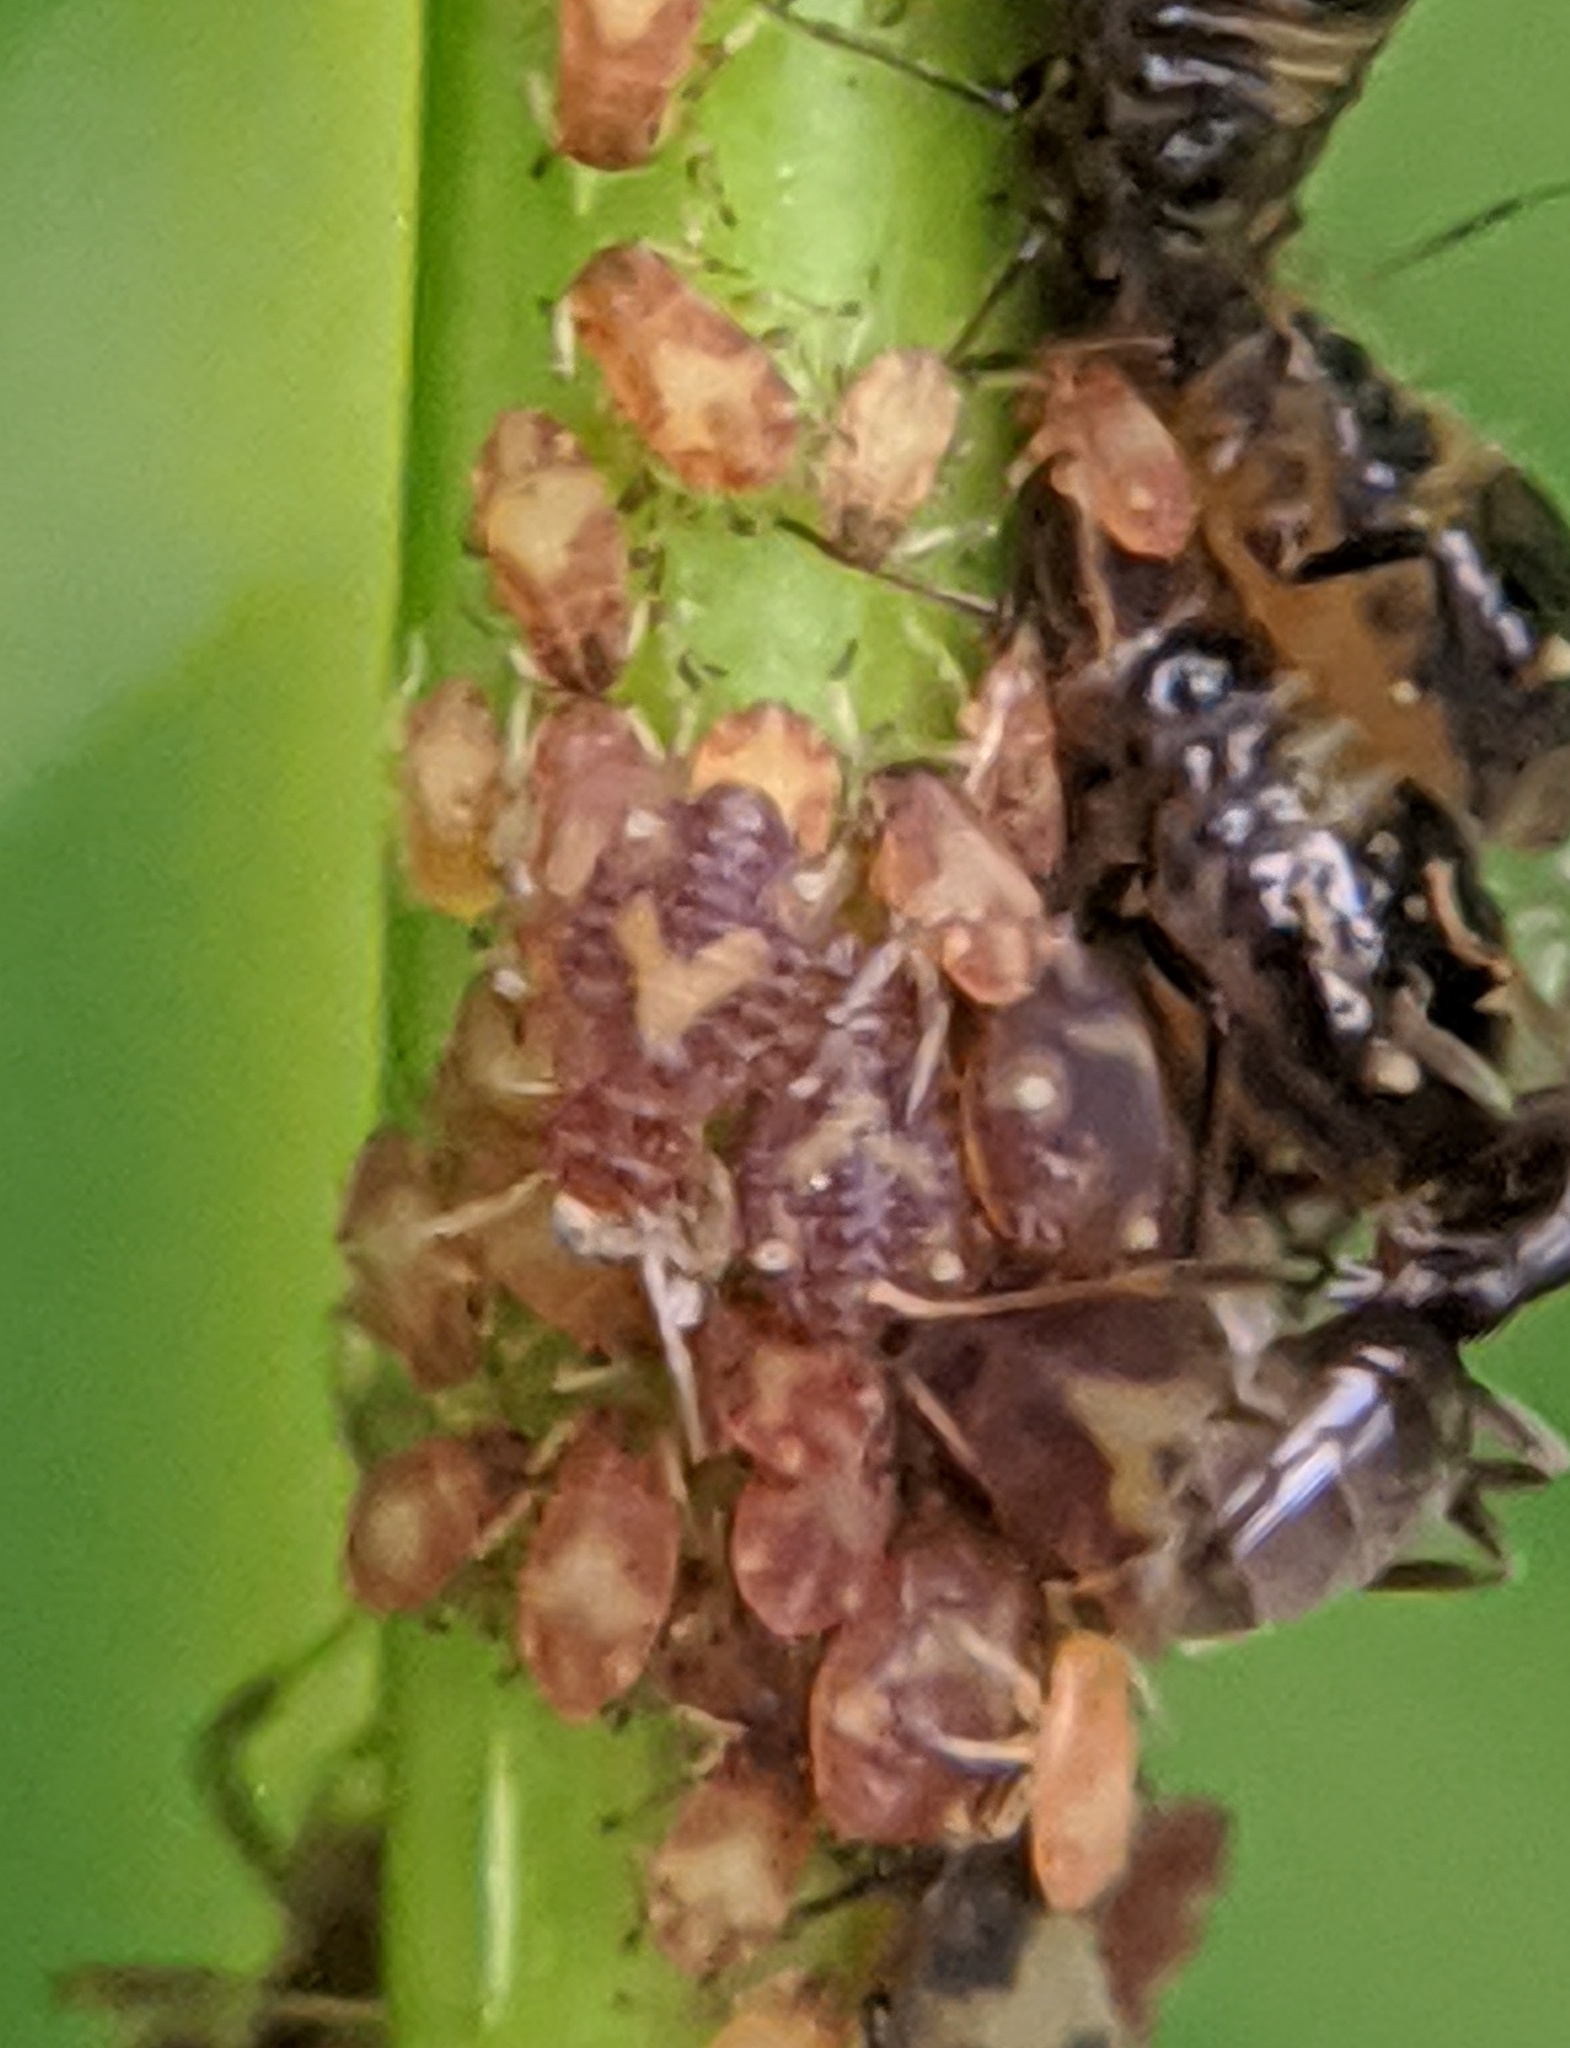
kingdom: Animalia
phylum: Arthropoda
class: Insecta
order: Hemiptera
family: Aphididae
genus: Chaitophorus
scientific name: Chaitophorus populicola
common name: Smokywinged poplar aphid
